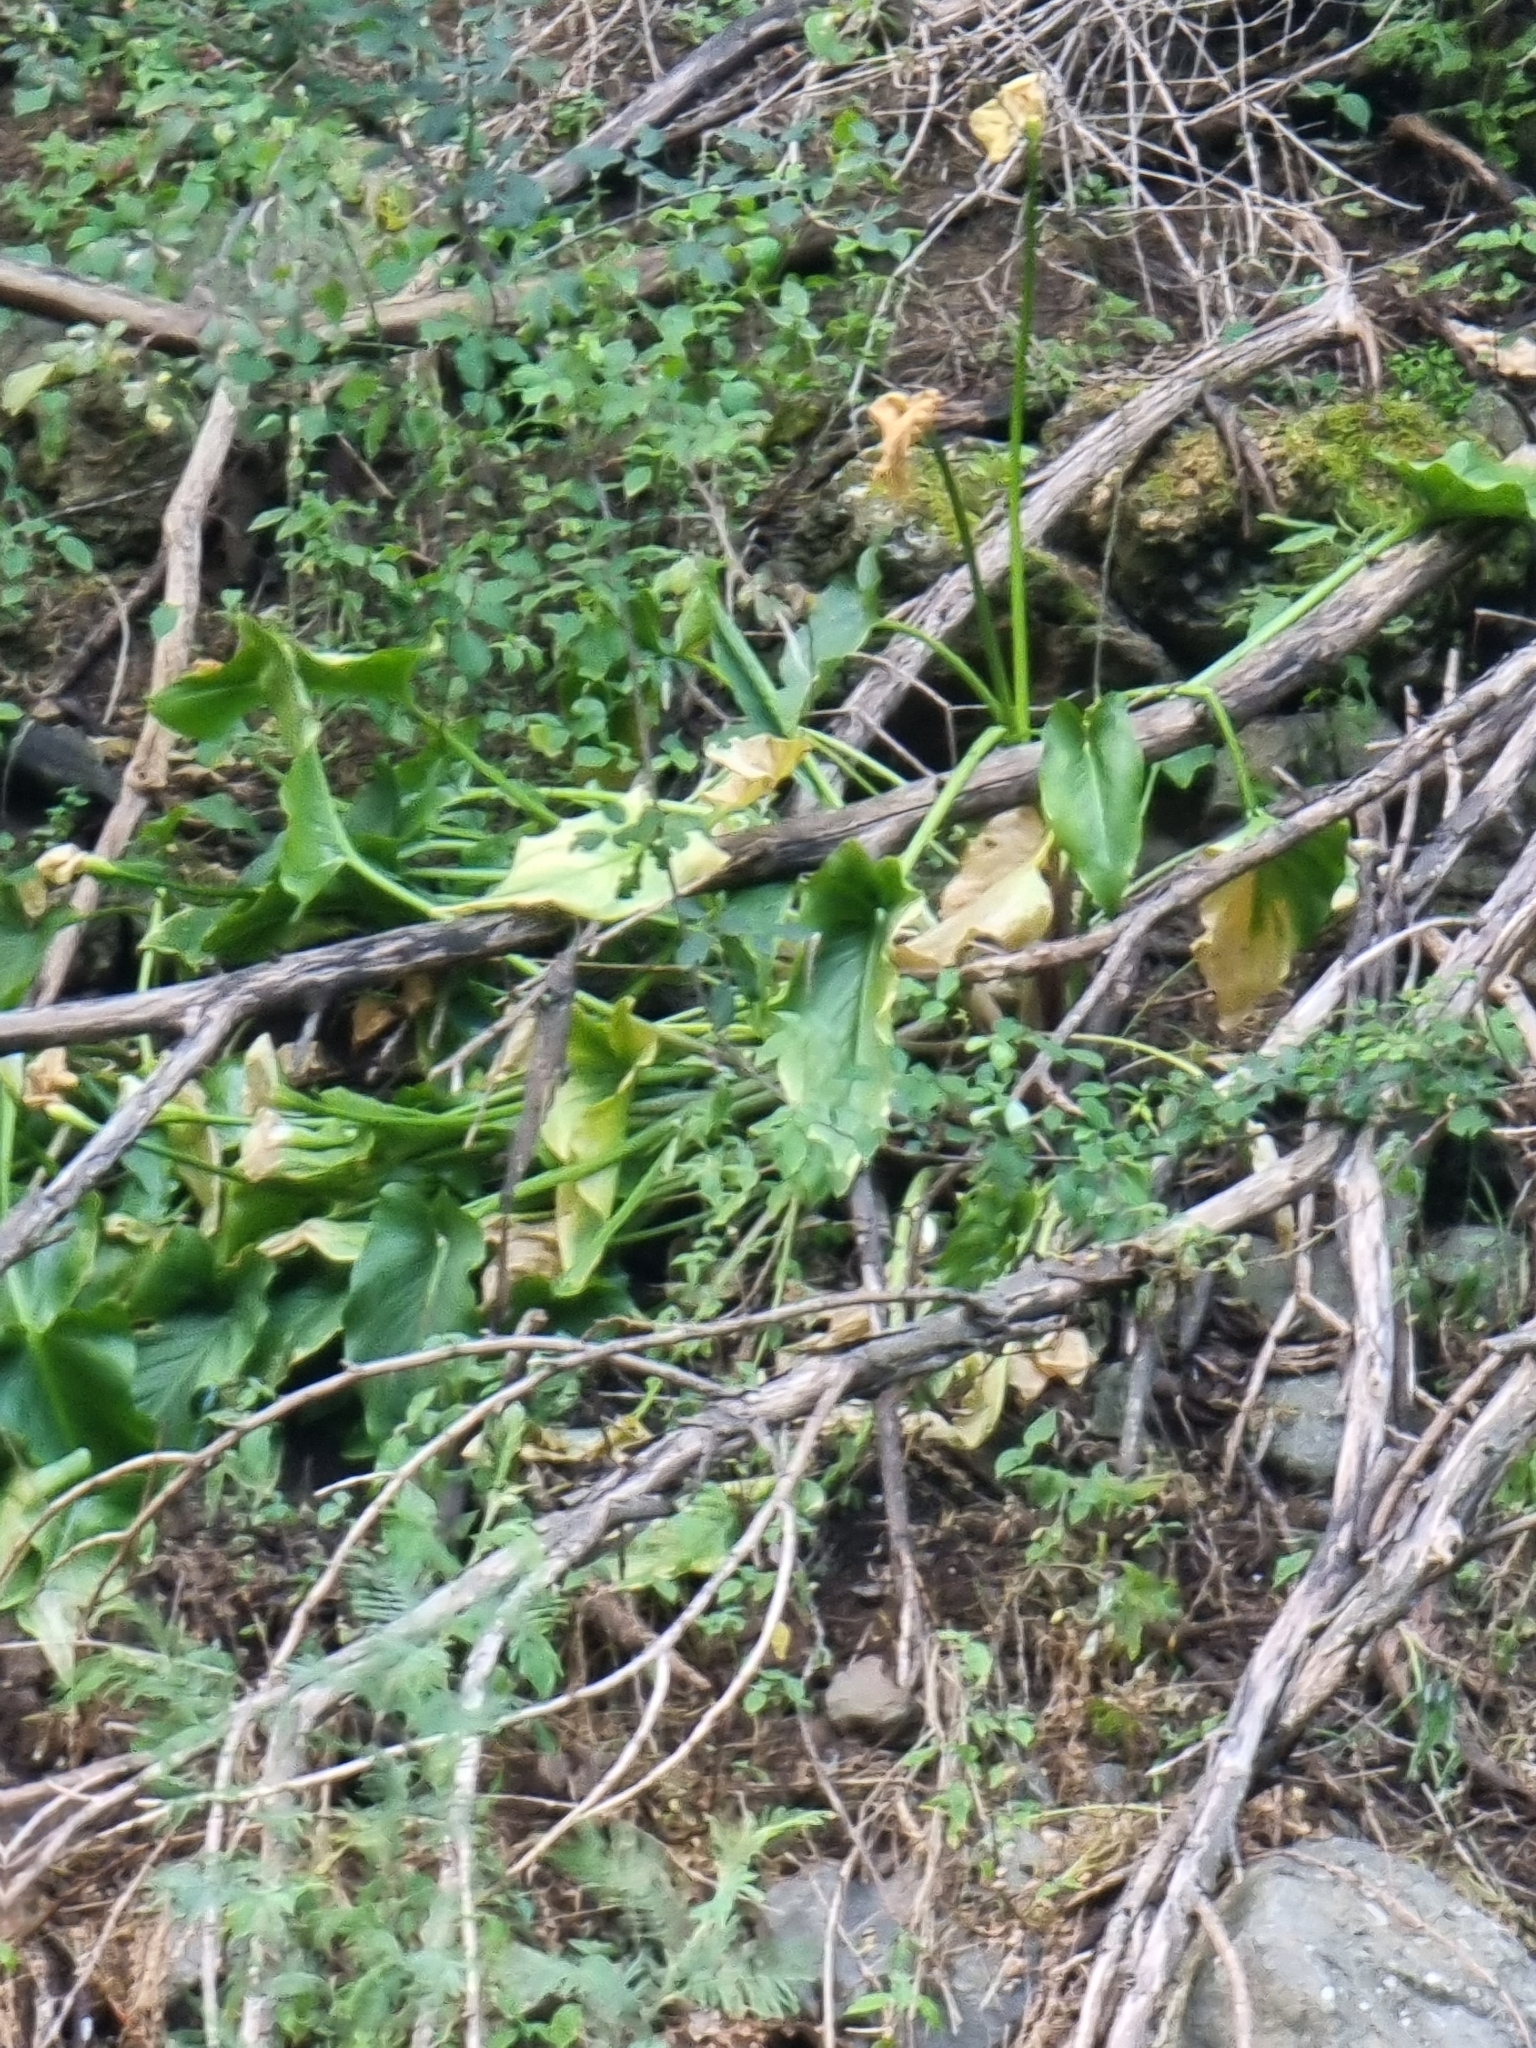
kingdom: Plantae
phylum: Tracheophyta
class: Liliopsida
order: Alismatales
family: Araceae
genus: Zantedeschia
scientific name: Zantedeschia aethiopica
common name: Altar-lily
